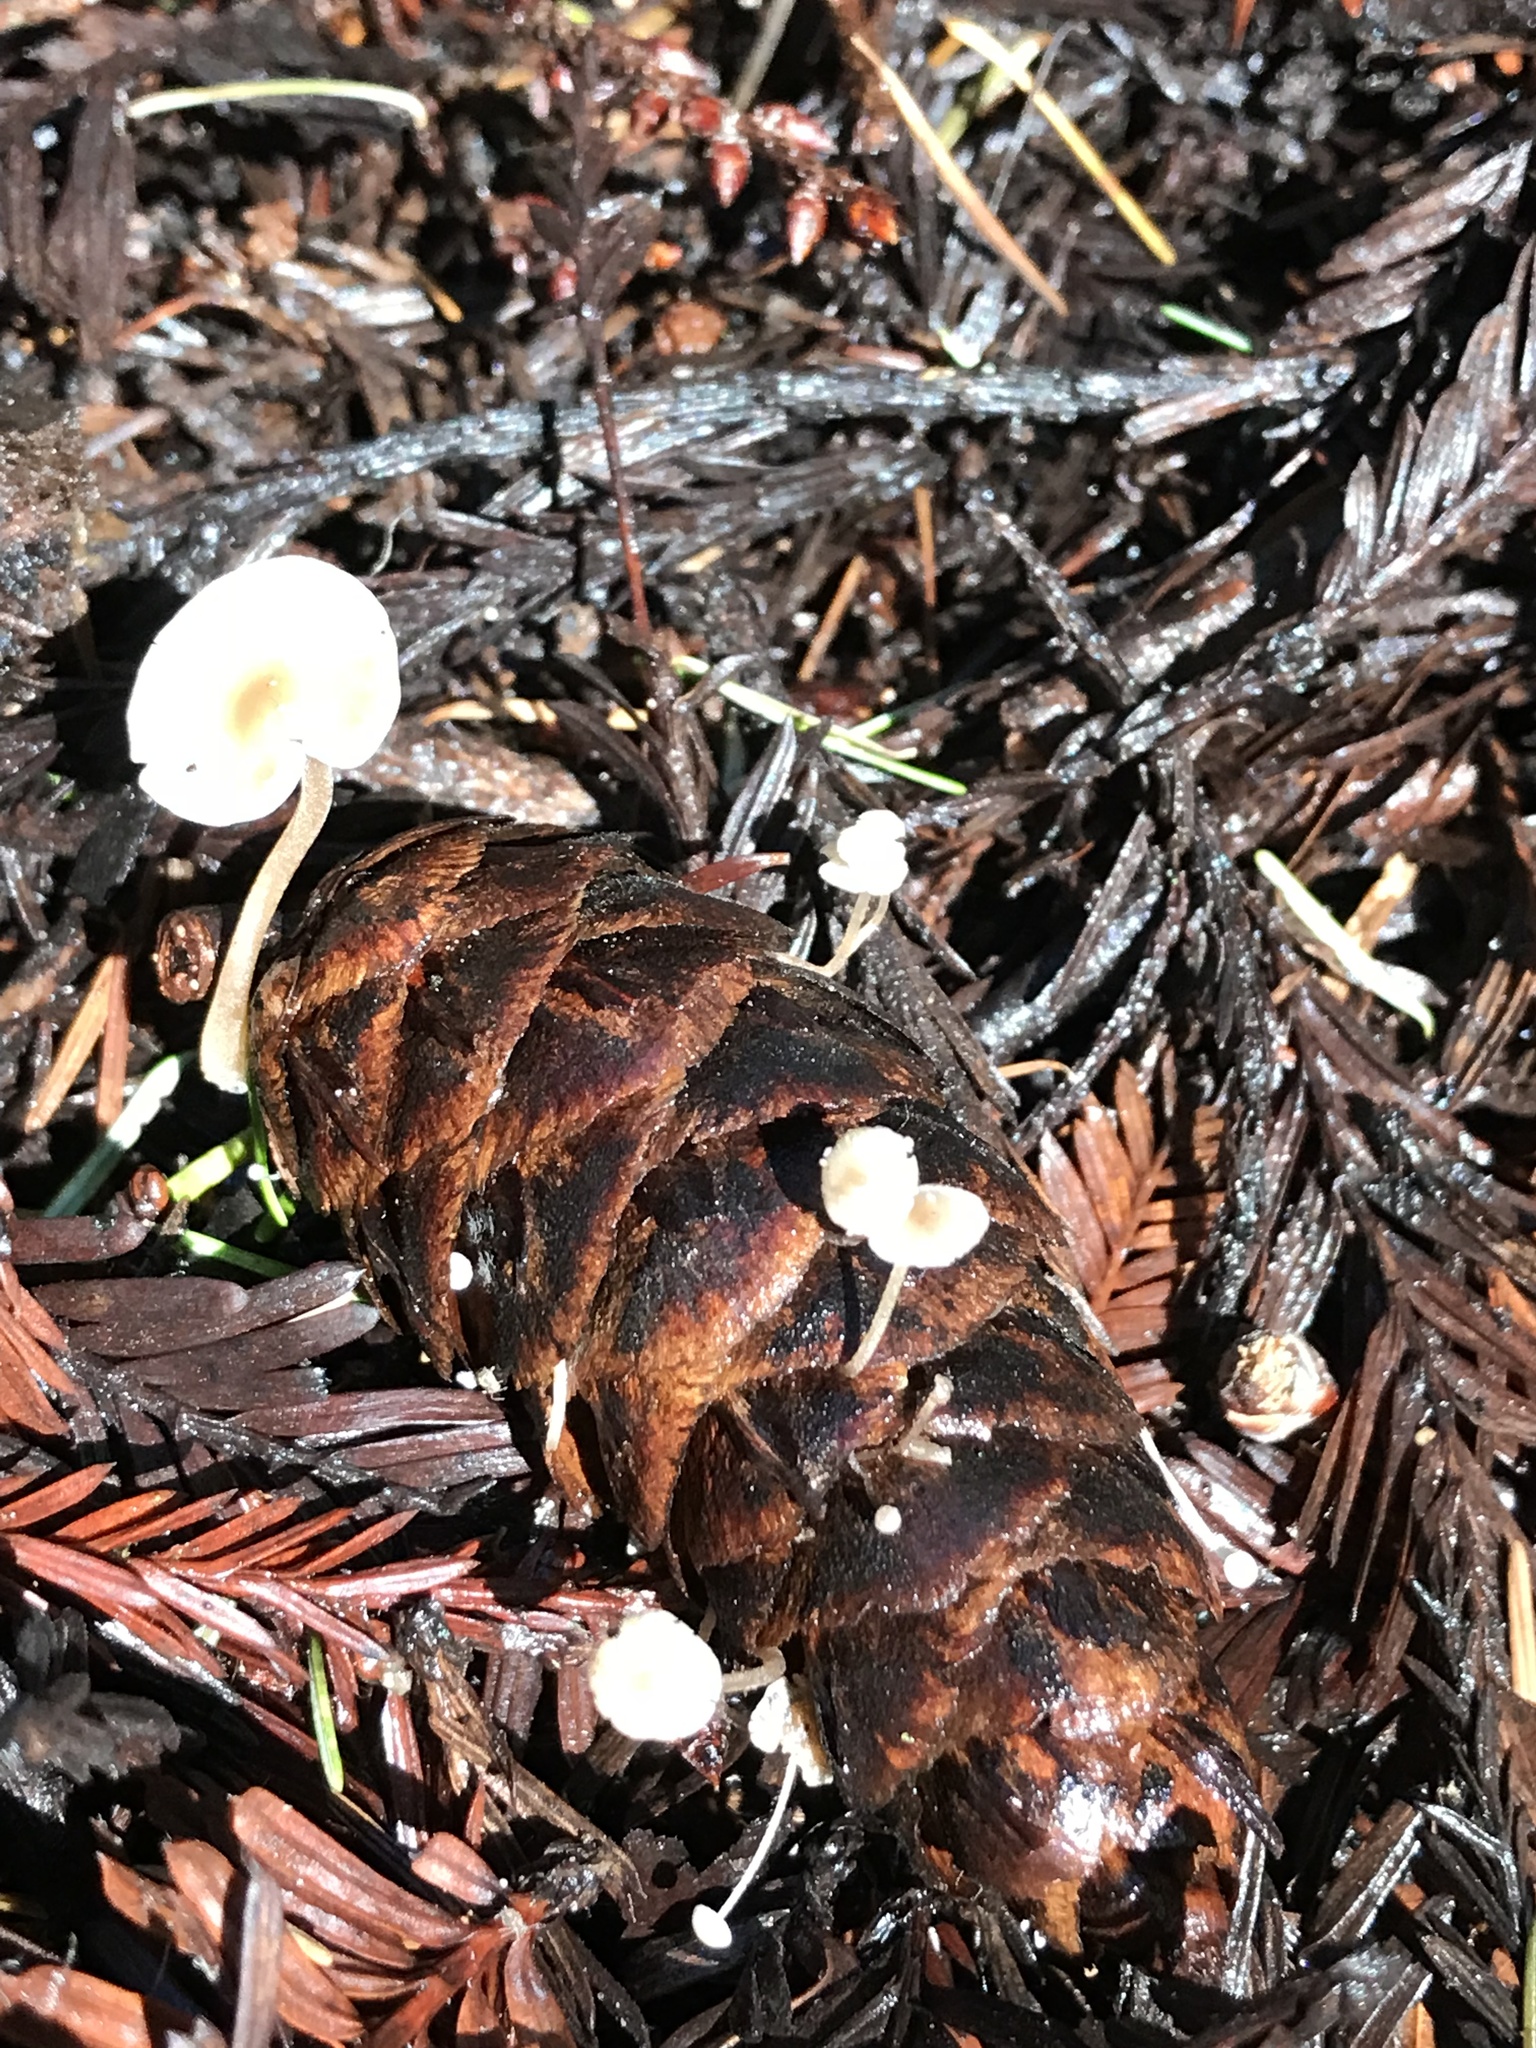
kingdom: Fungi
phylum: Basidiomycota
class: Agaricomycetes
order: Agaricales
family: Physalacriaceae
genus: Strobilurus
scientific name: Strobilurus trullisatus
